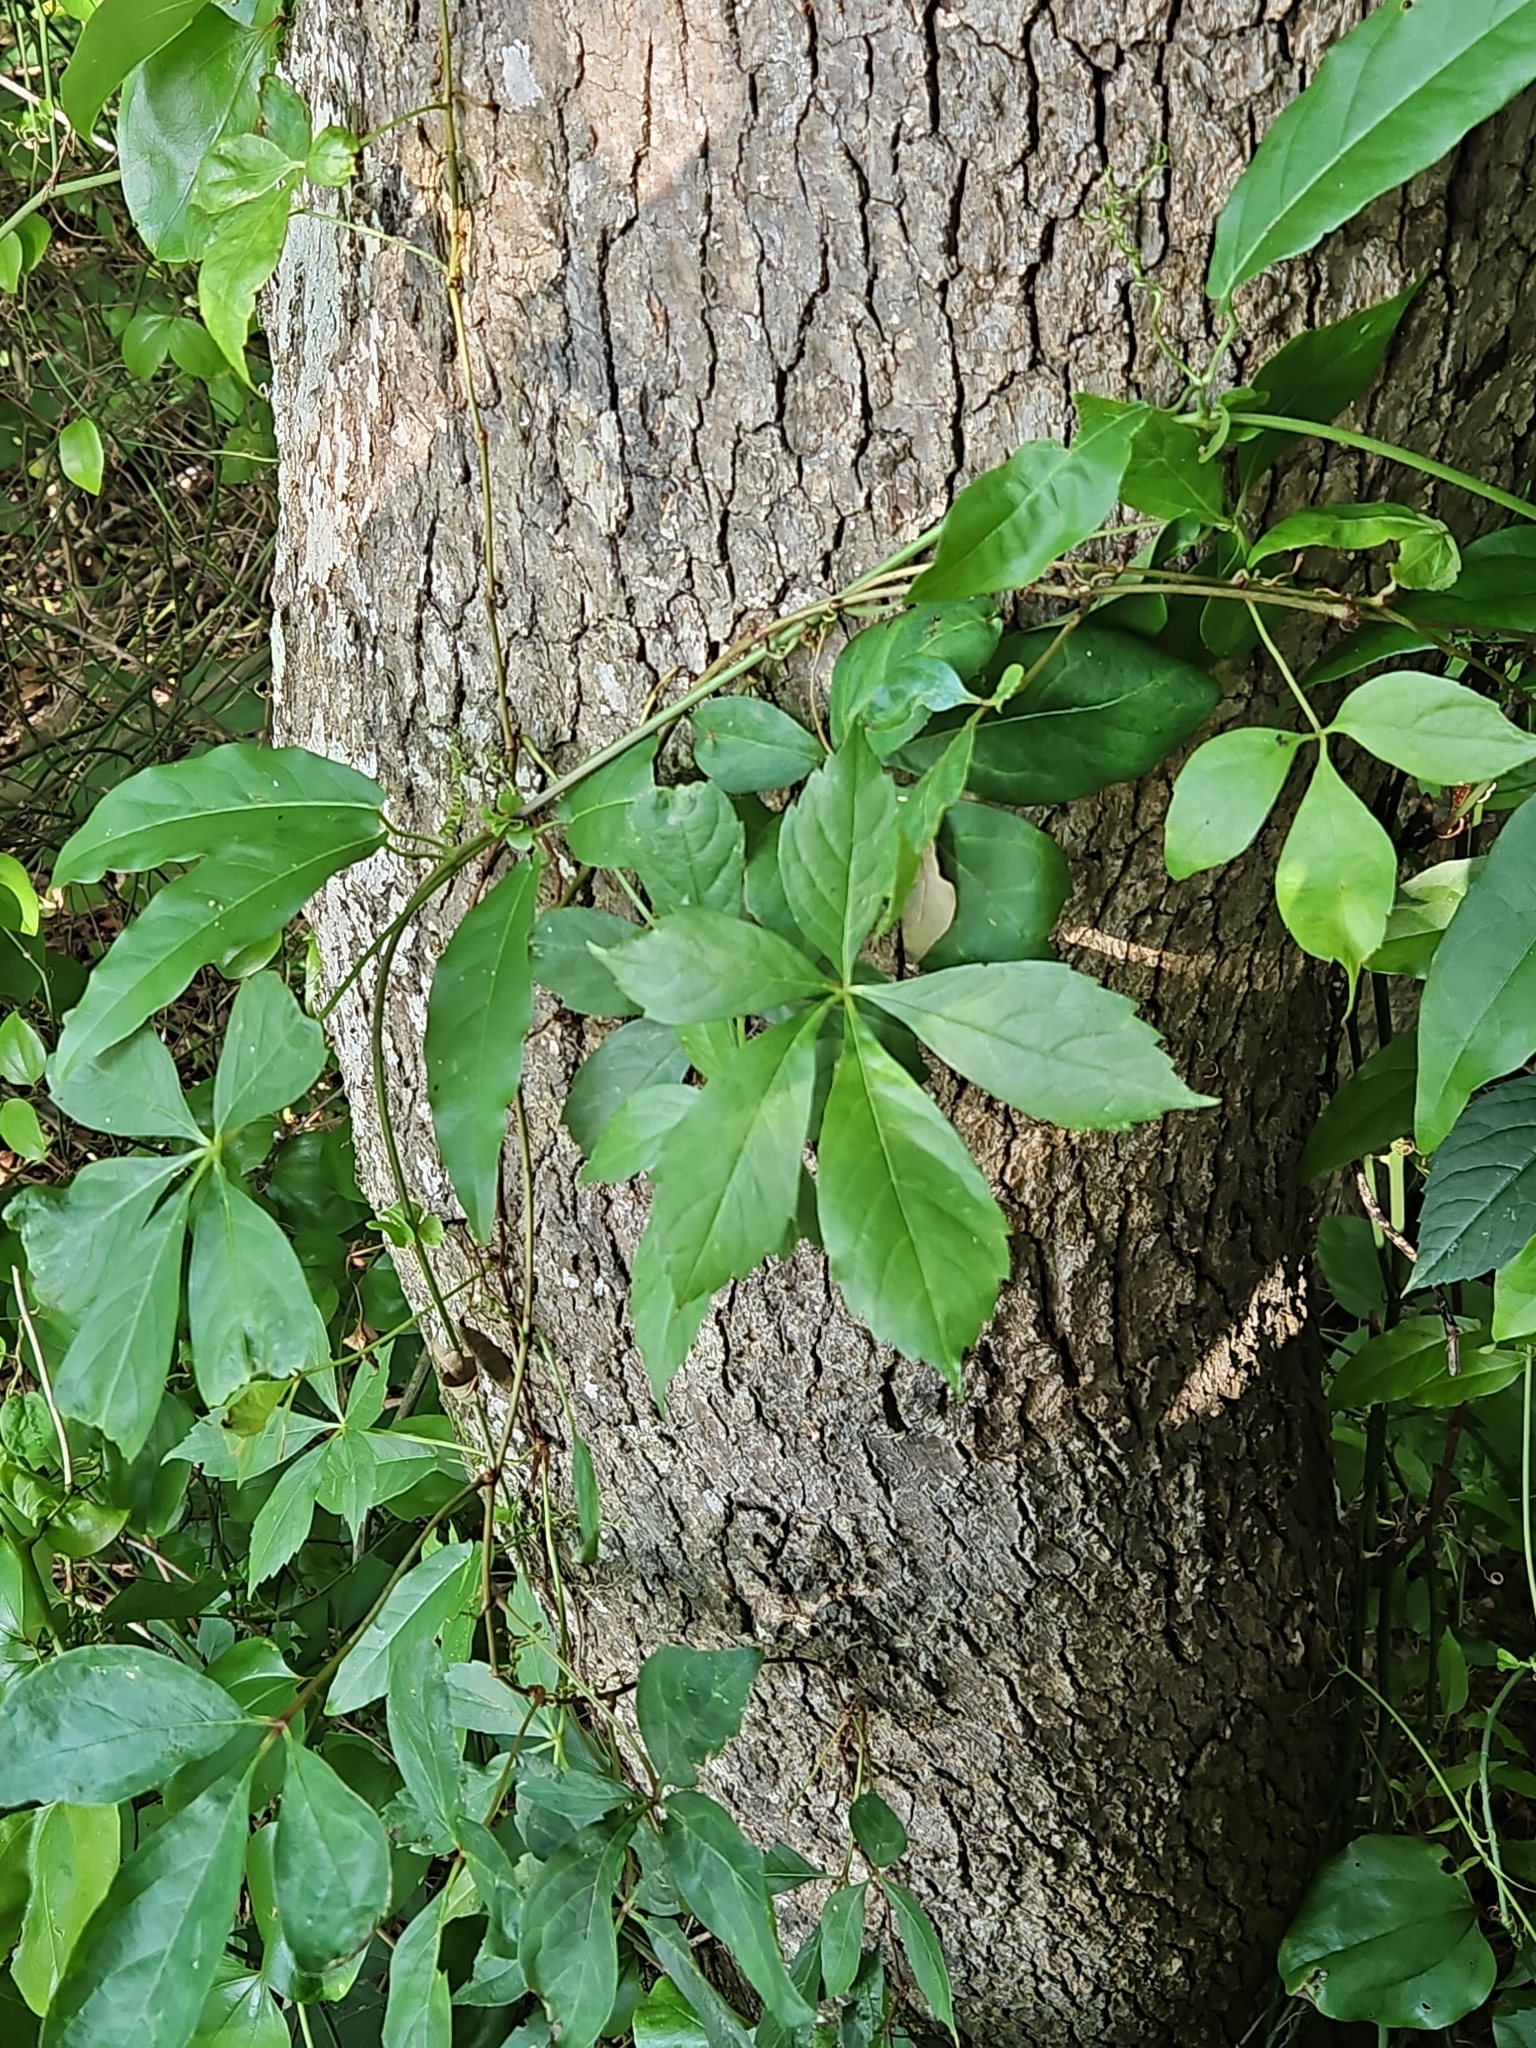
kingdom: Plantae
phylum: Tracheophyta
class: Magnoliopsida
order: Vitales
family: Vitaceae
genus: Parthenocissus
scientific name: Parthenocissus quinquefolia
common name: Virginia-creeper
